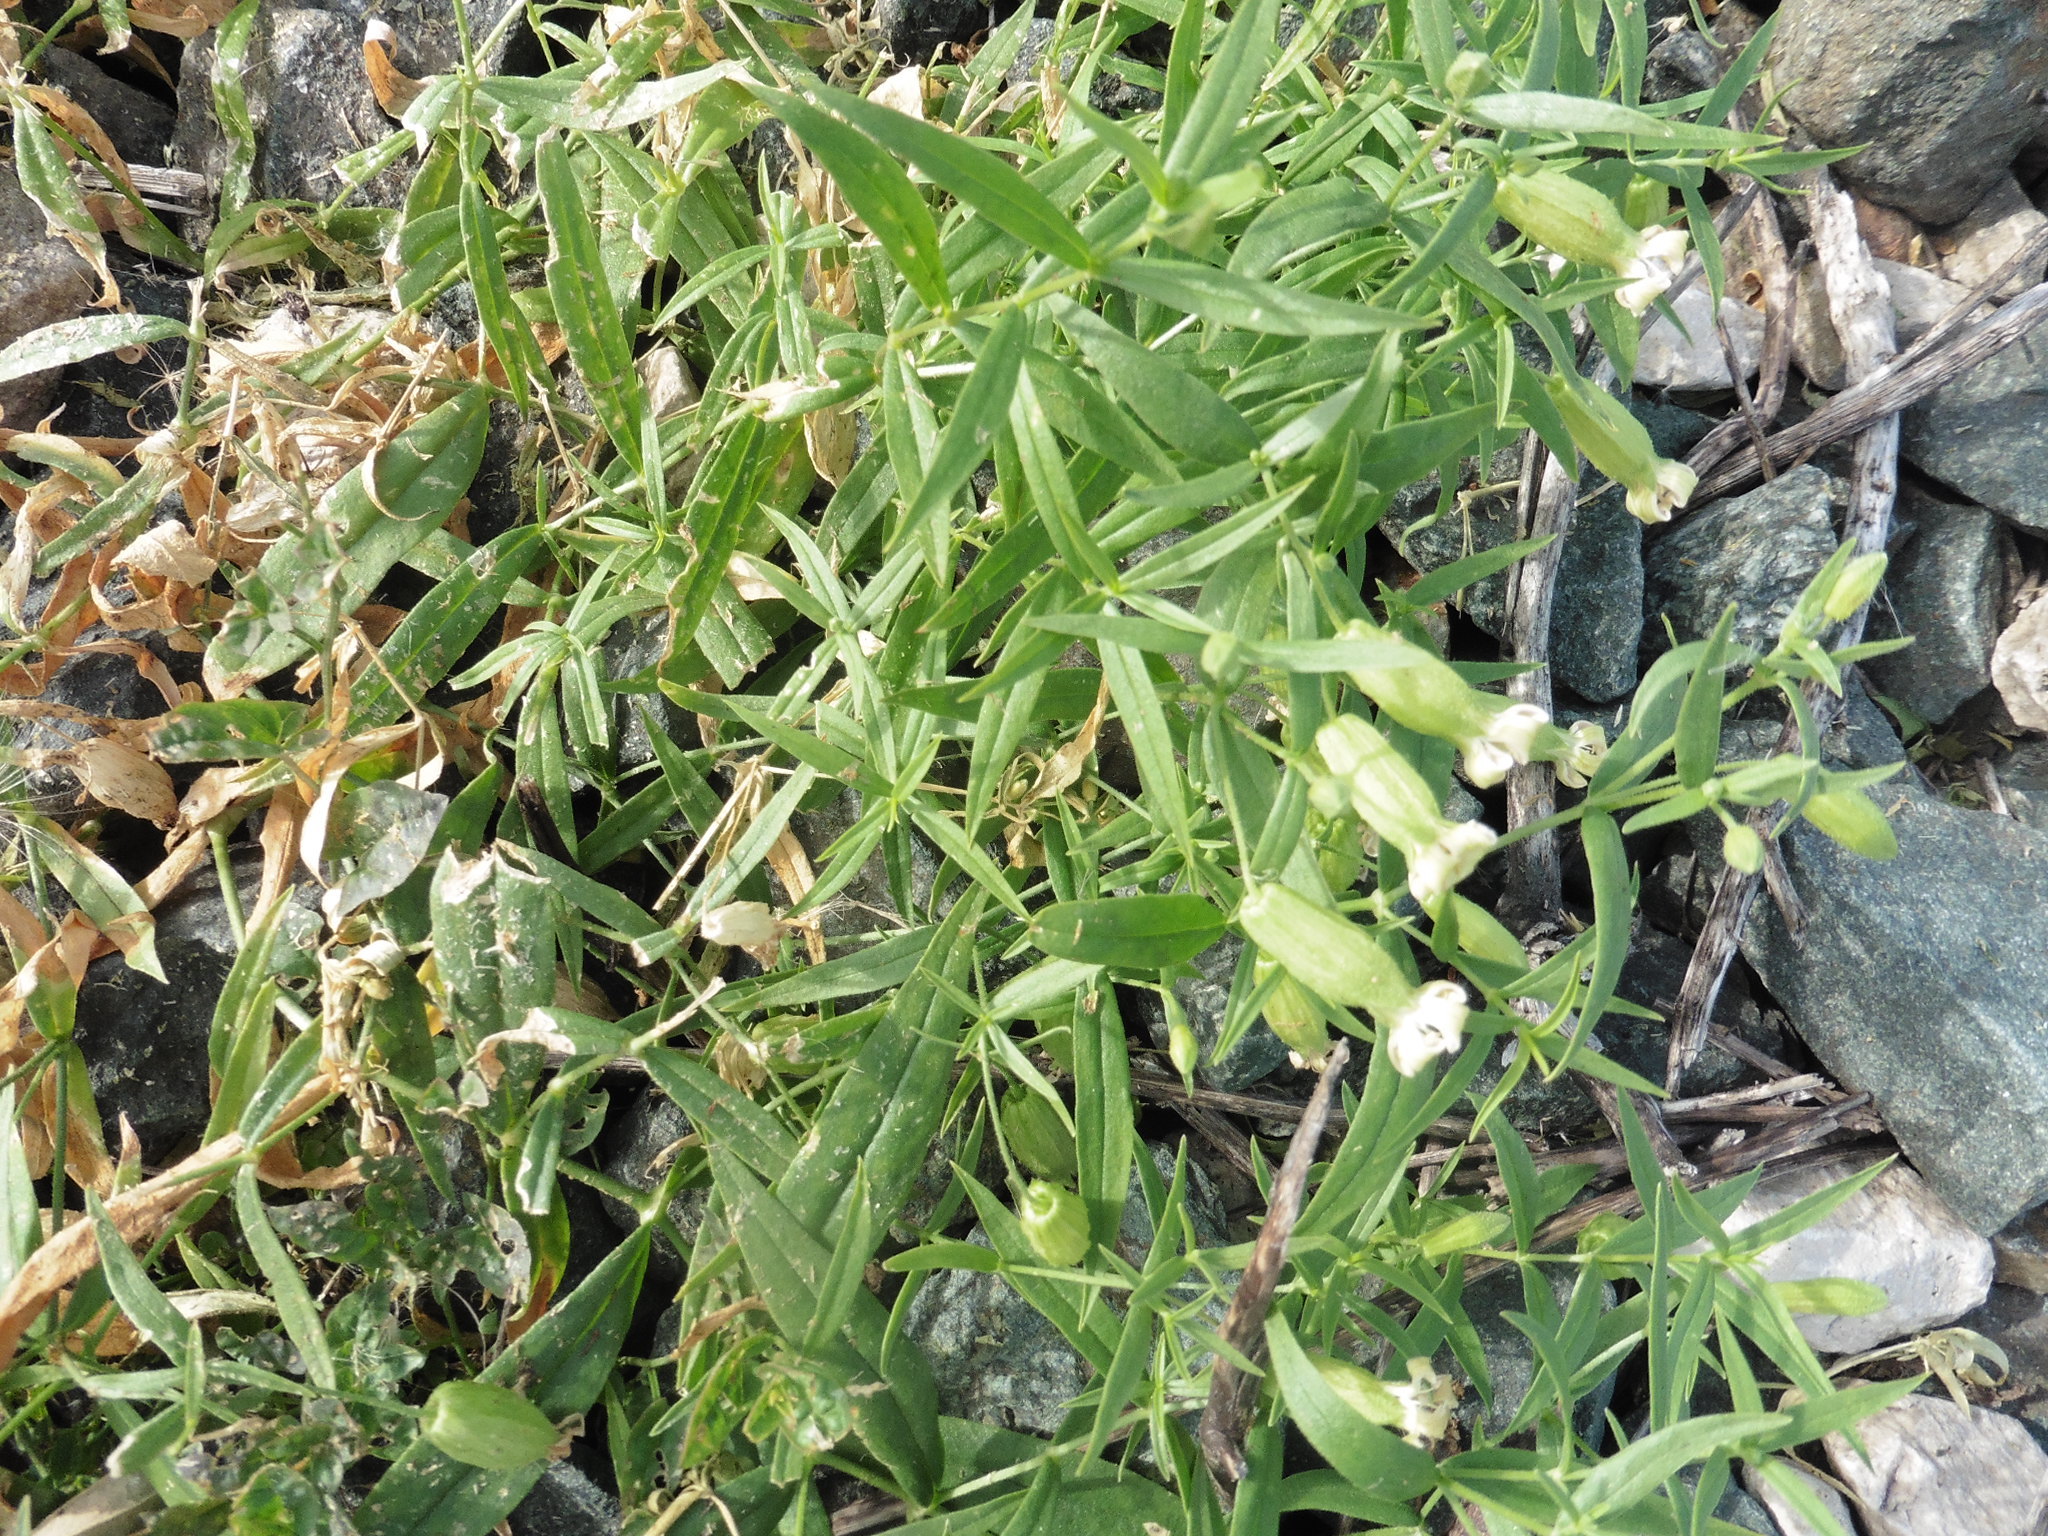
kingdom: Plantae
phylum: Tracheophyta
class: Magnoliopsida
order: Caryophyllales
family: Caryophyllaceae
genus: Silene
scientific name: Silene procumbens
